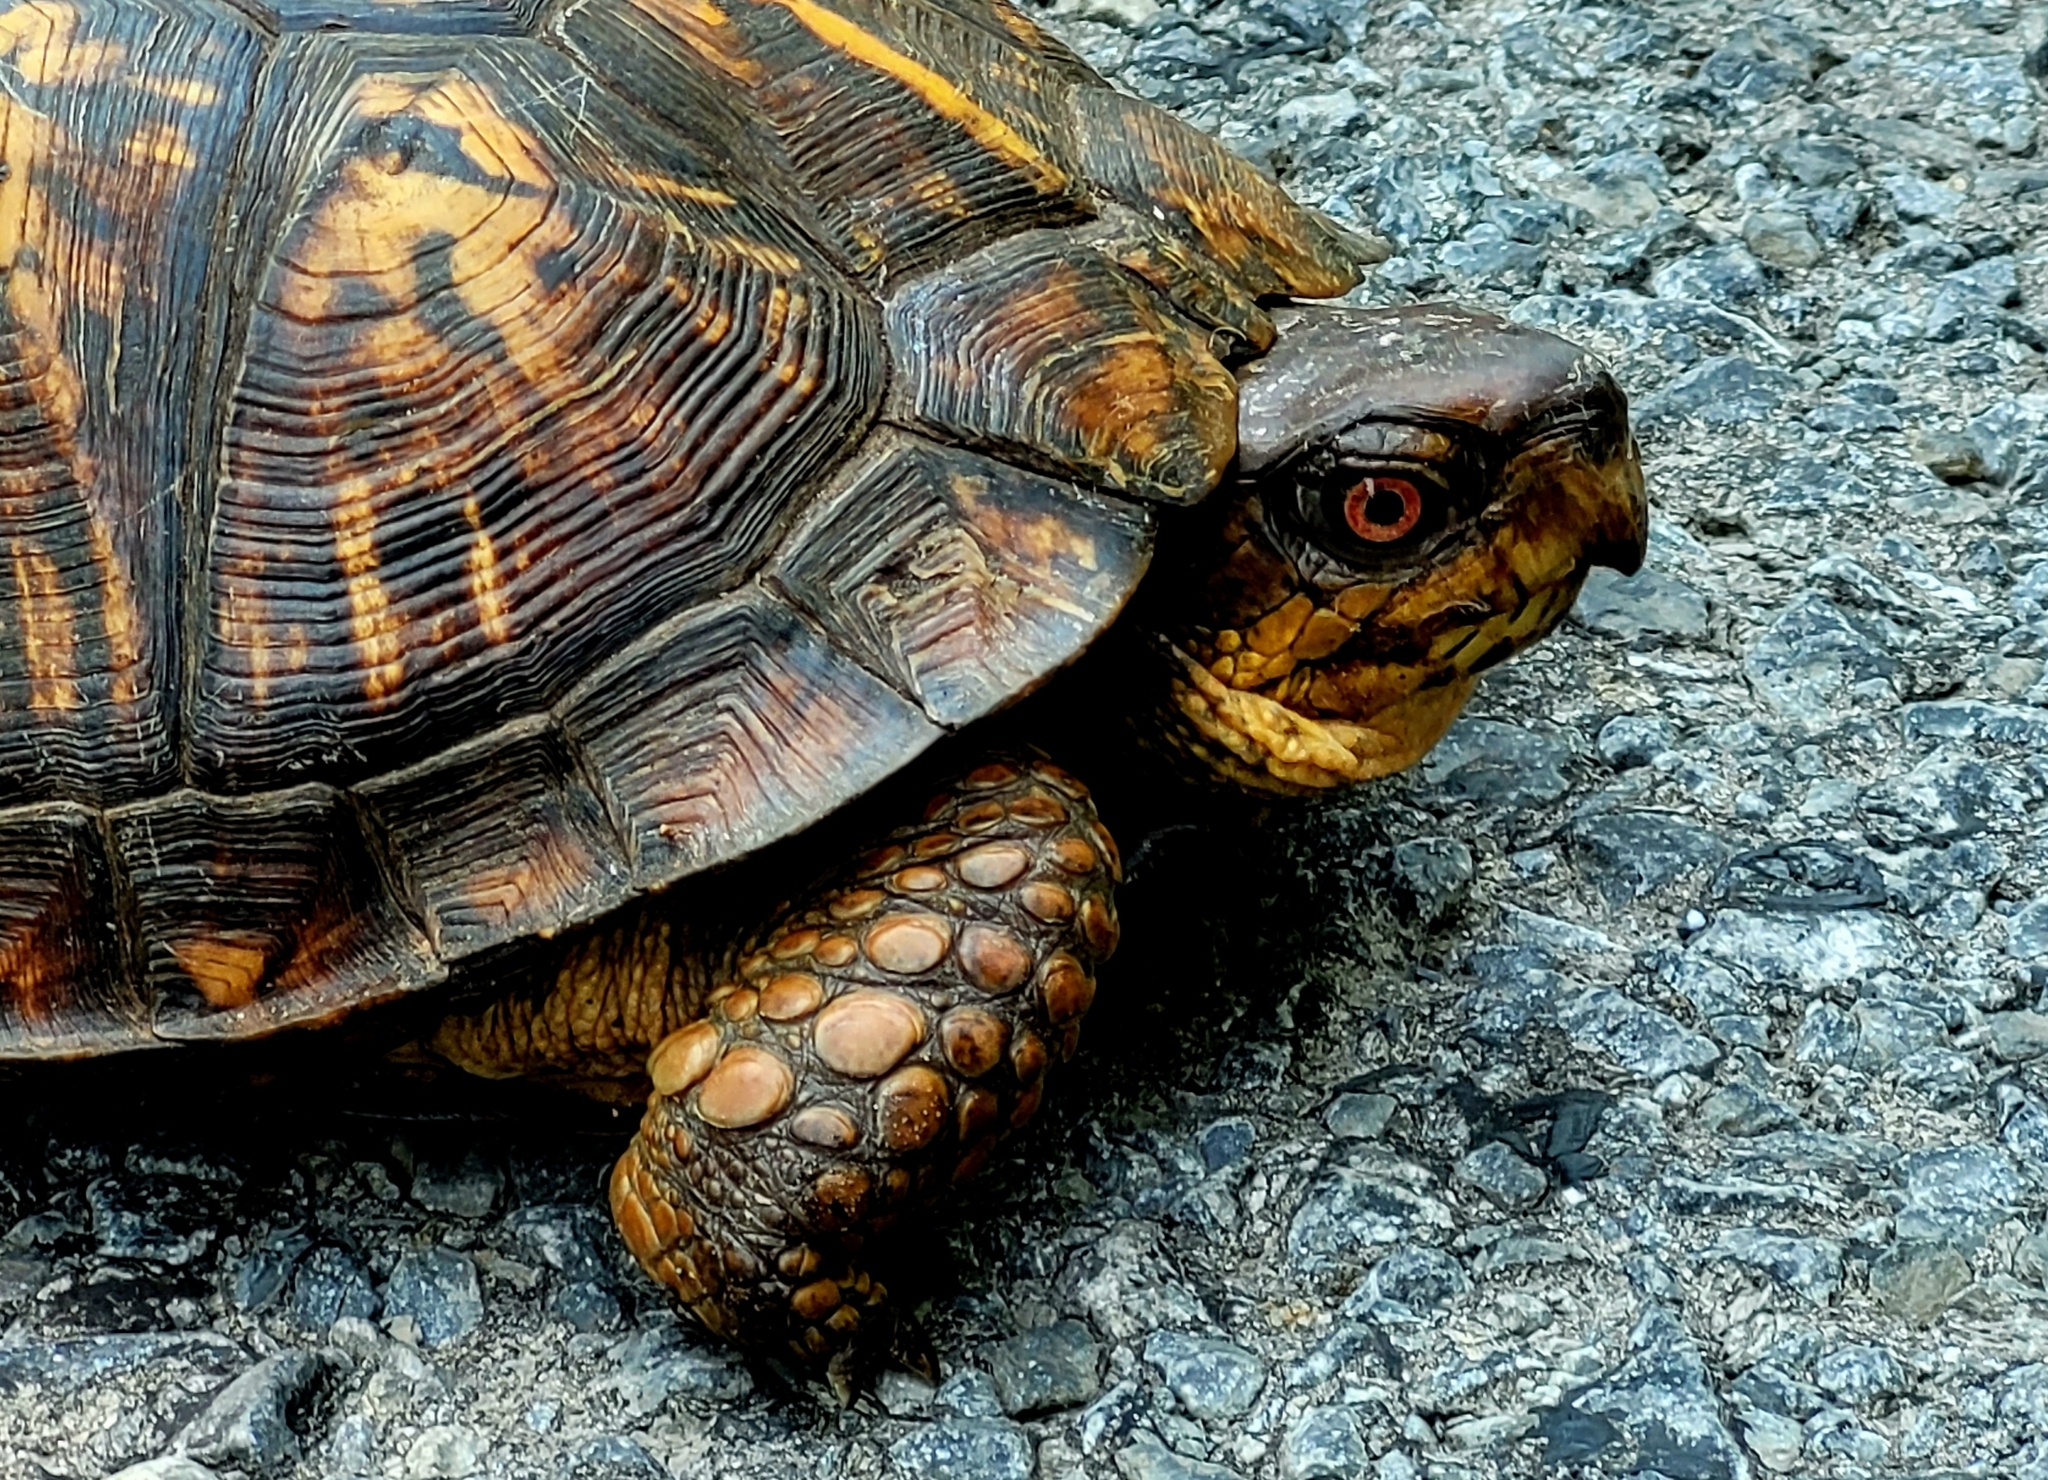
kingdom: Animalia
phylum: Chordata
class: Testudines
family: Emydidae
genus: Terrapene
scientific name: Terrapene carolina
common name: Common box turtle
